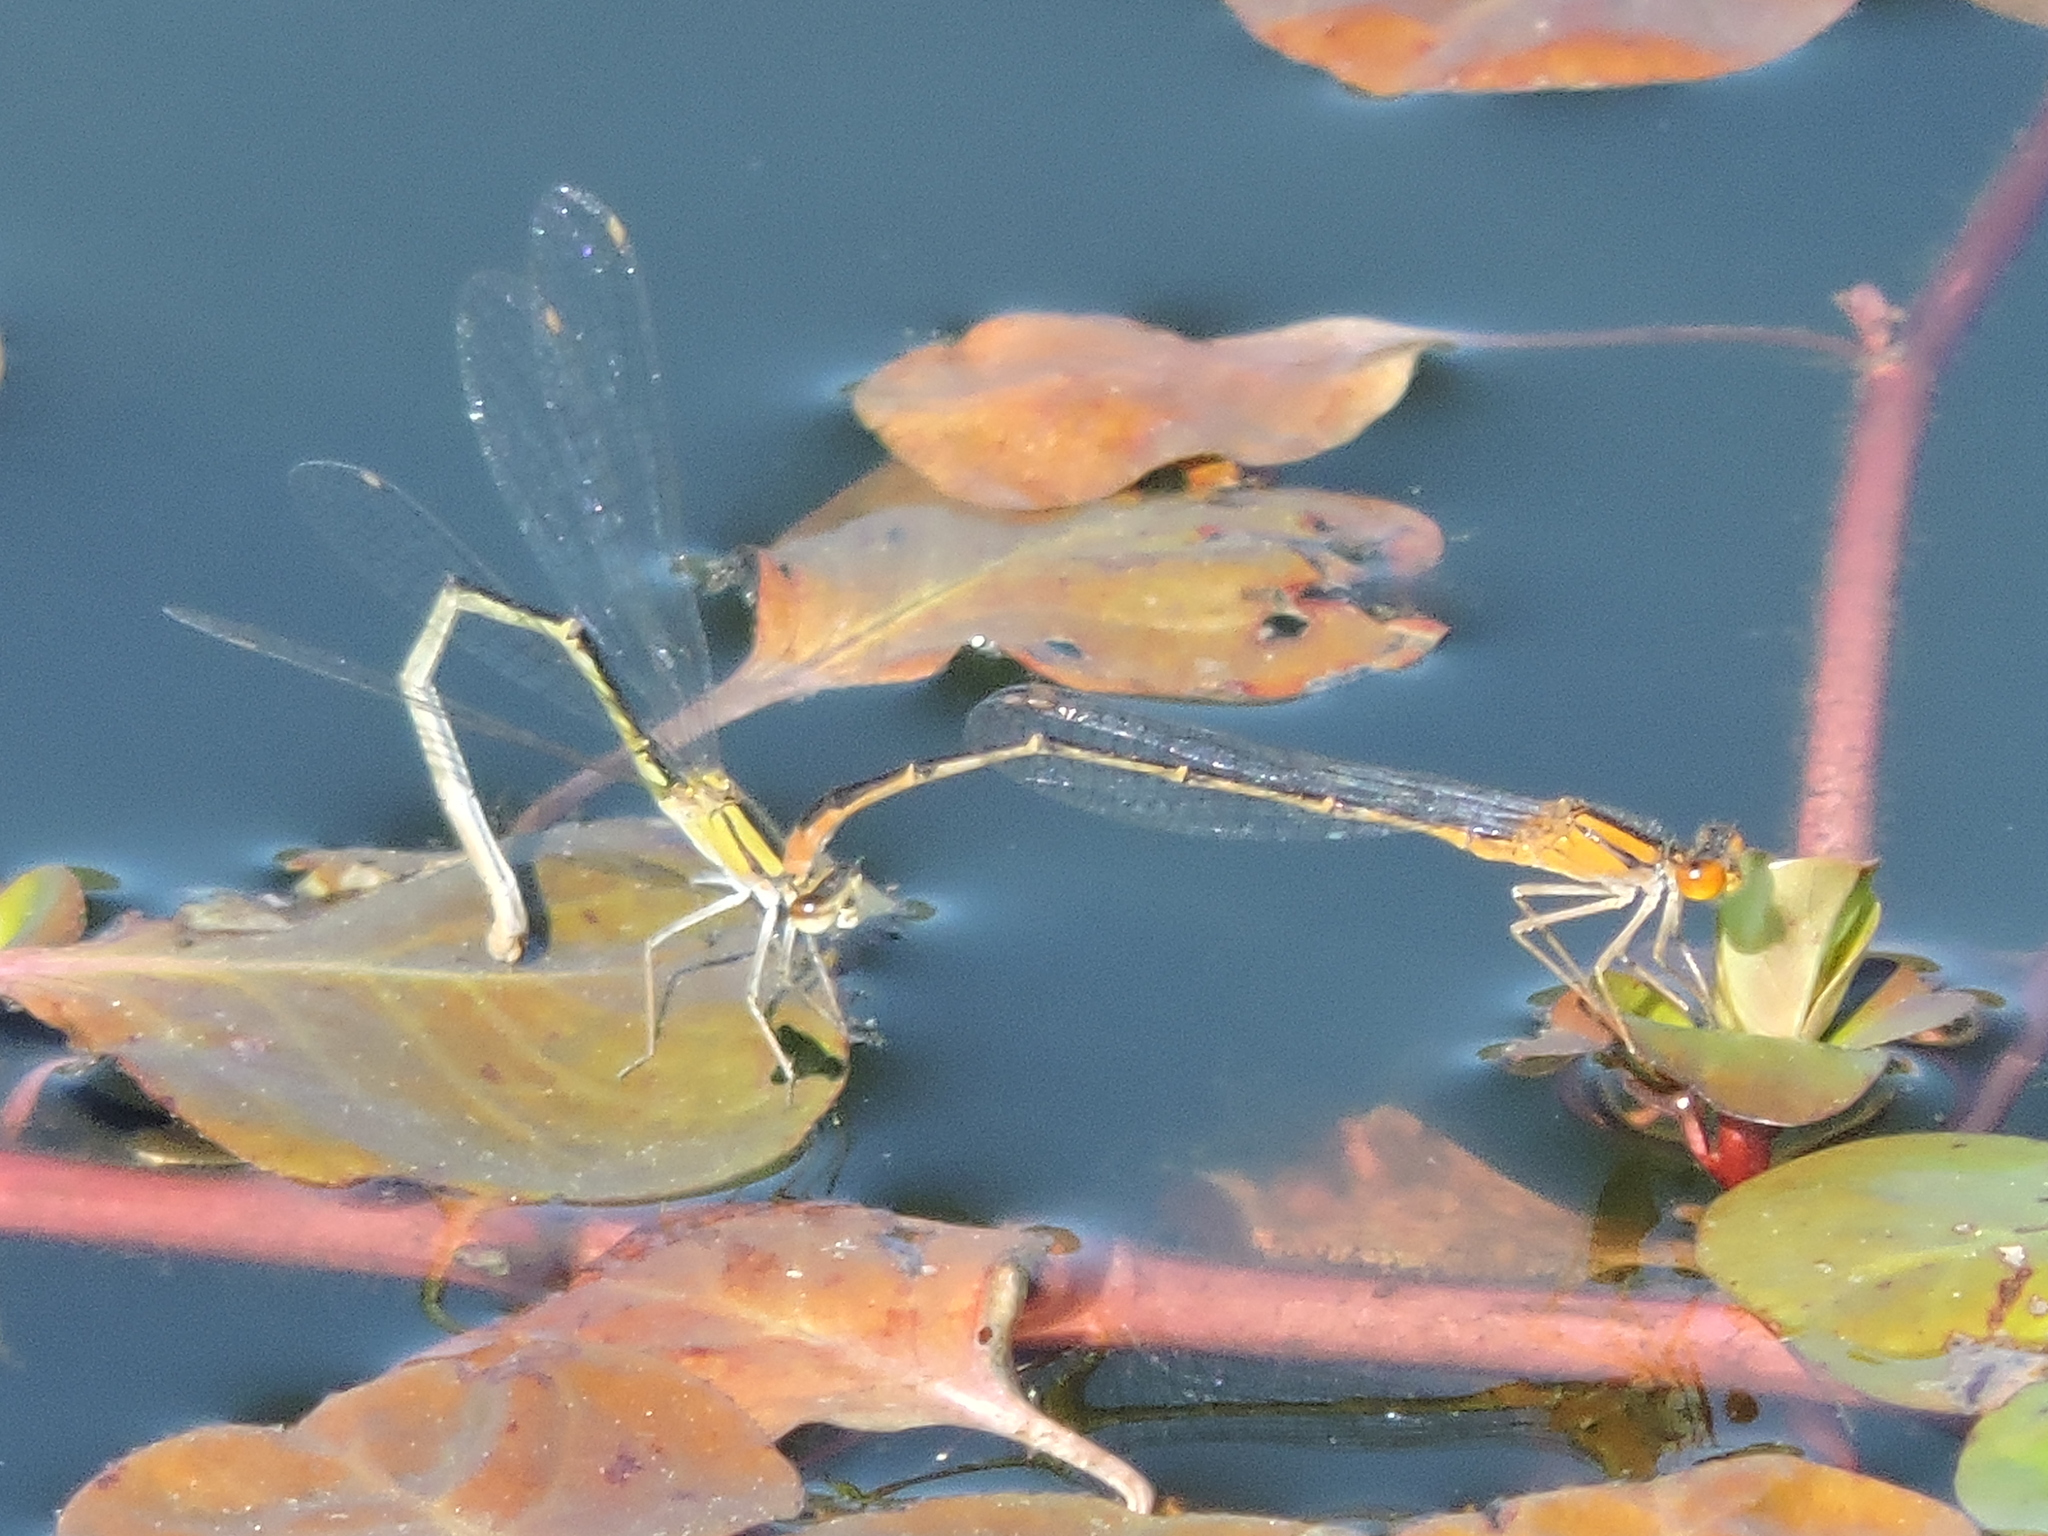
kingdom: Animalia
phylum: Arthropoda
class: Insecta
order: Odonata
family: Coenagrionidae
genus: Enallagma
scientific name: Enallagma signatum
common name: Orange bluet
